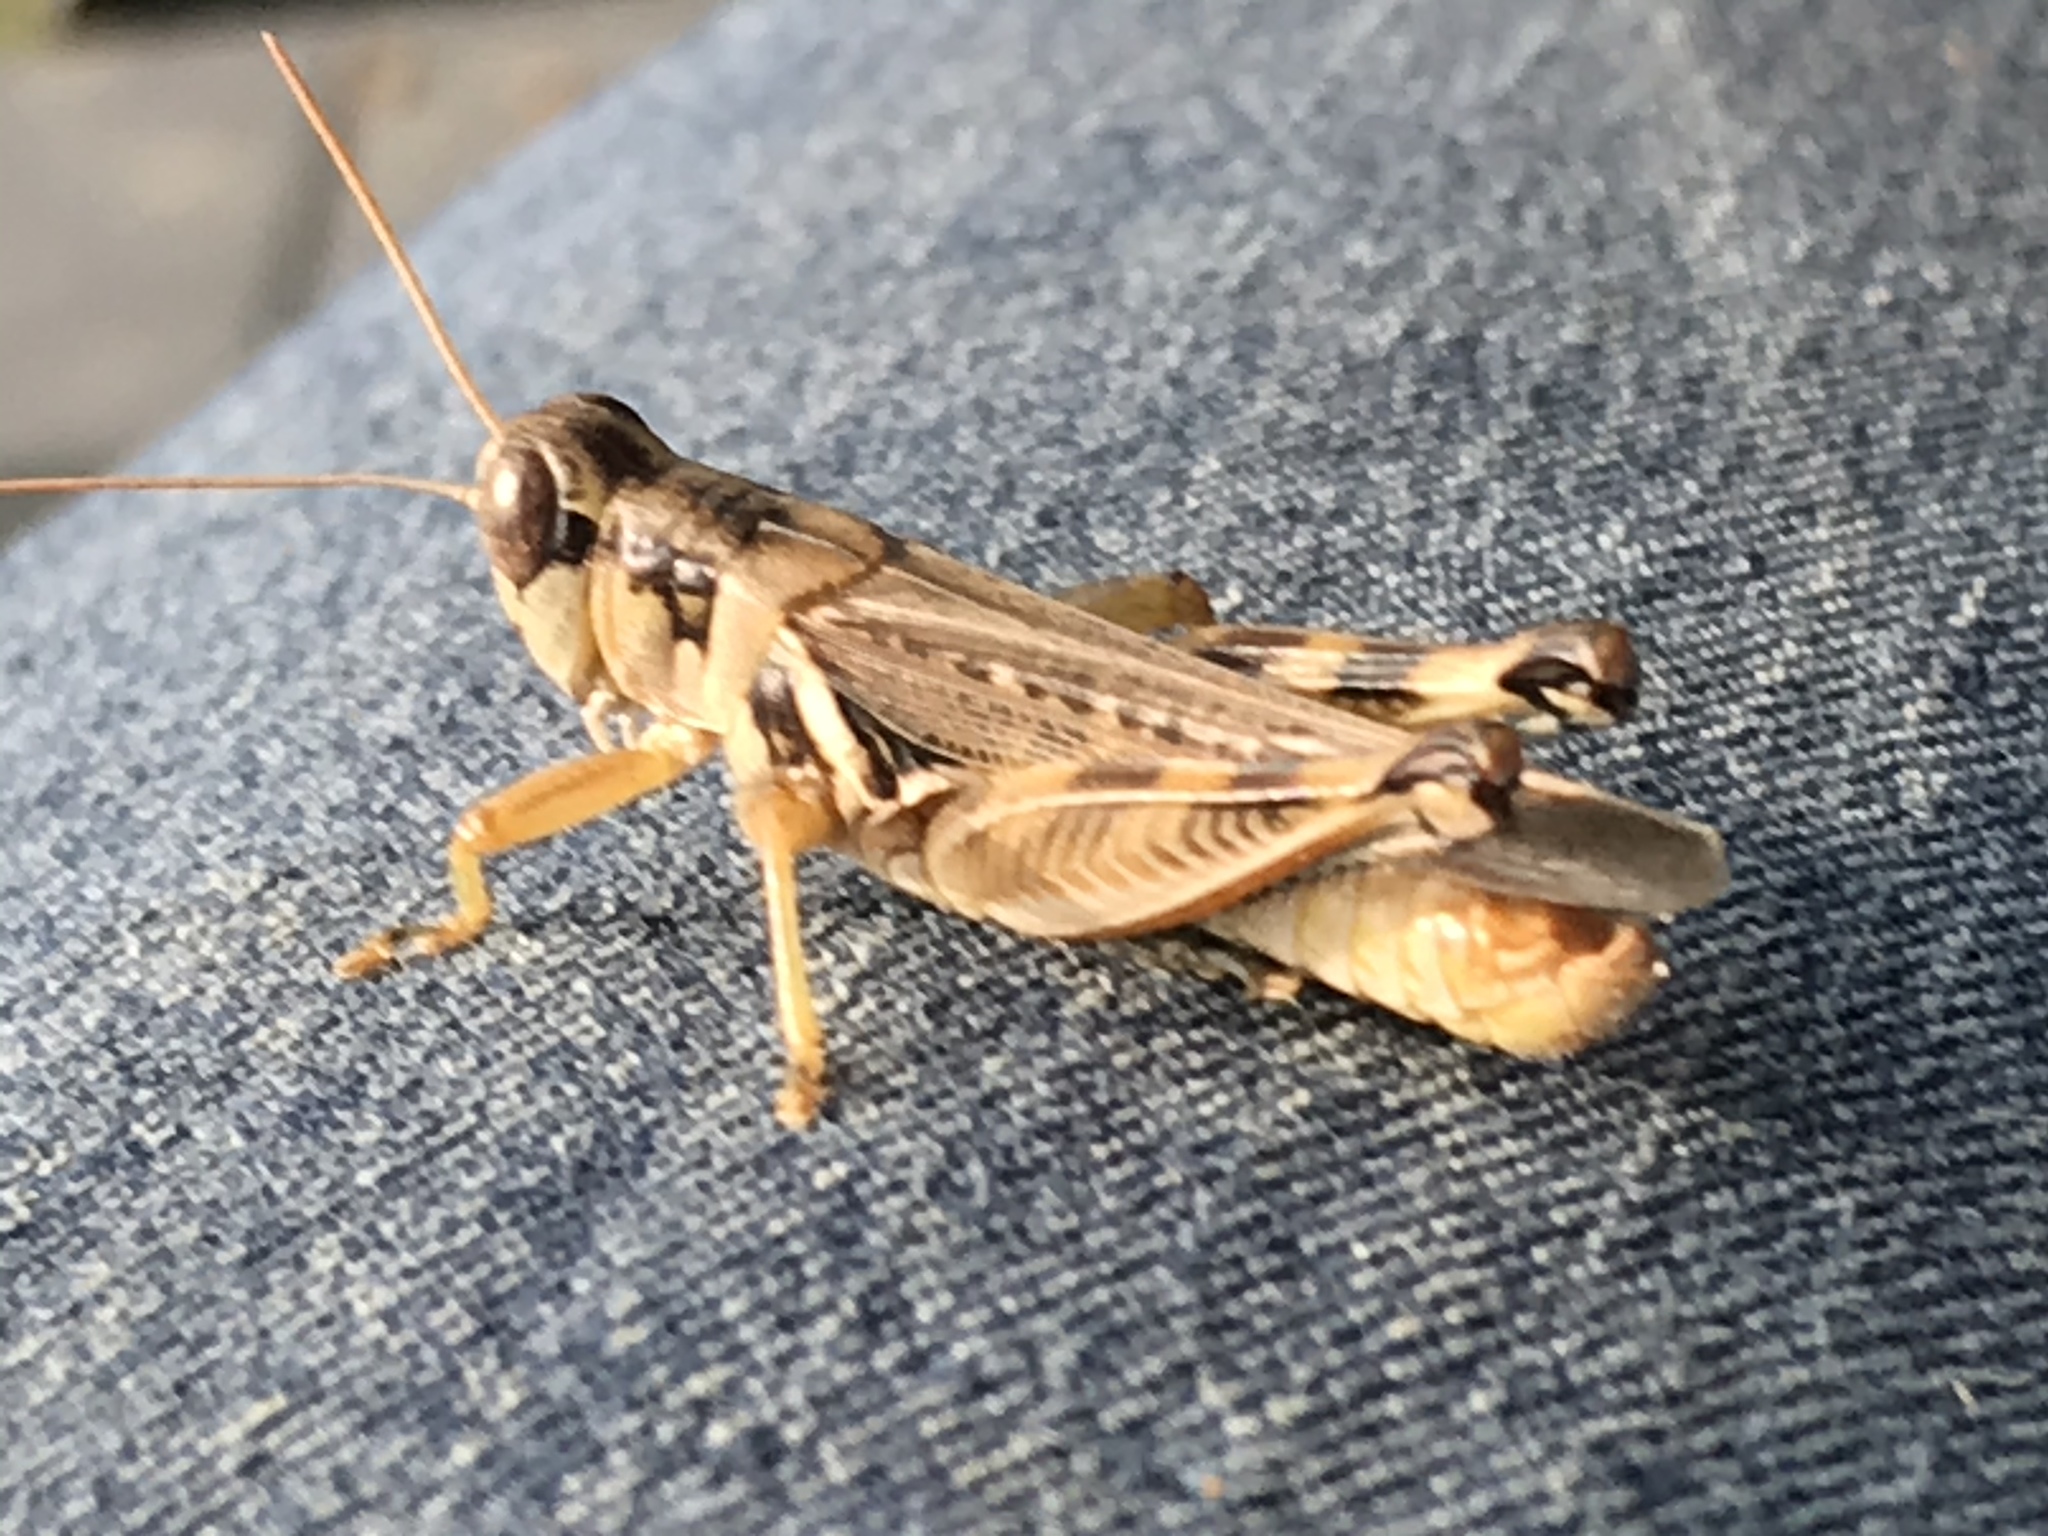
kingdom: Animalia
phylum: Arthropoda
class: Insecta
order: Orthoptera
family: Acrididae
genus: Melanoplus
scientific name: Melanoplus femurrubrum
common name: Red-legged grasshopper
